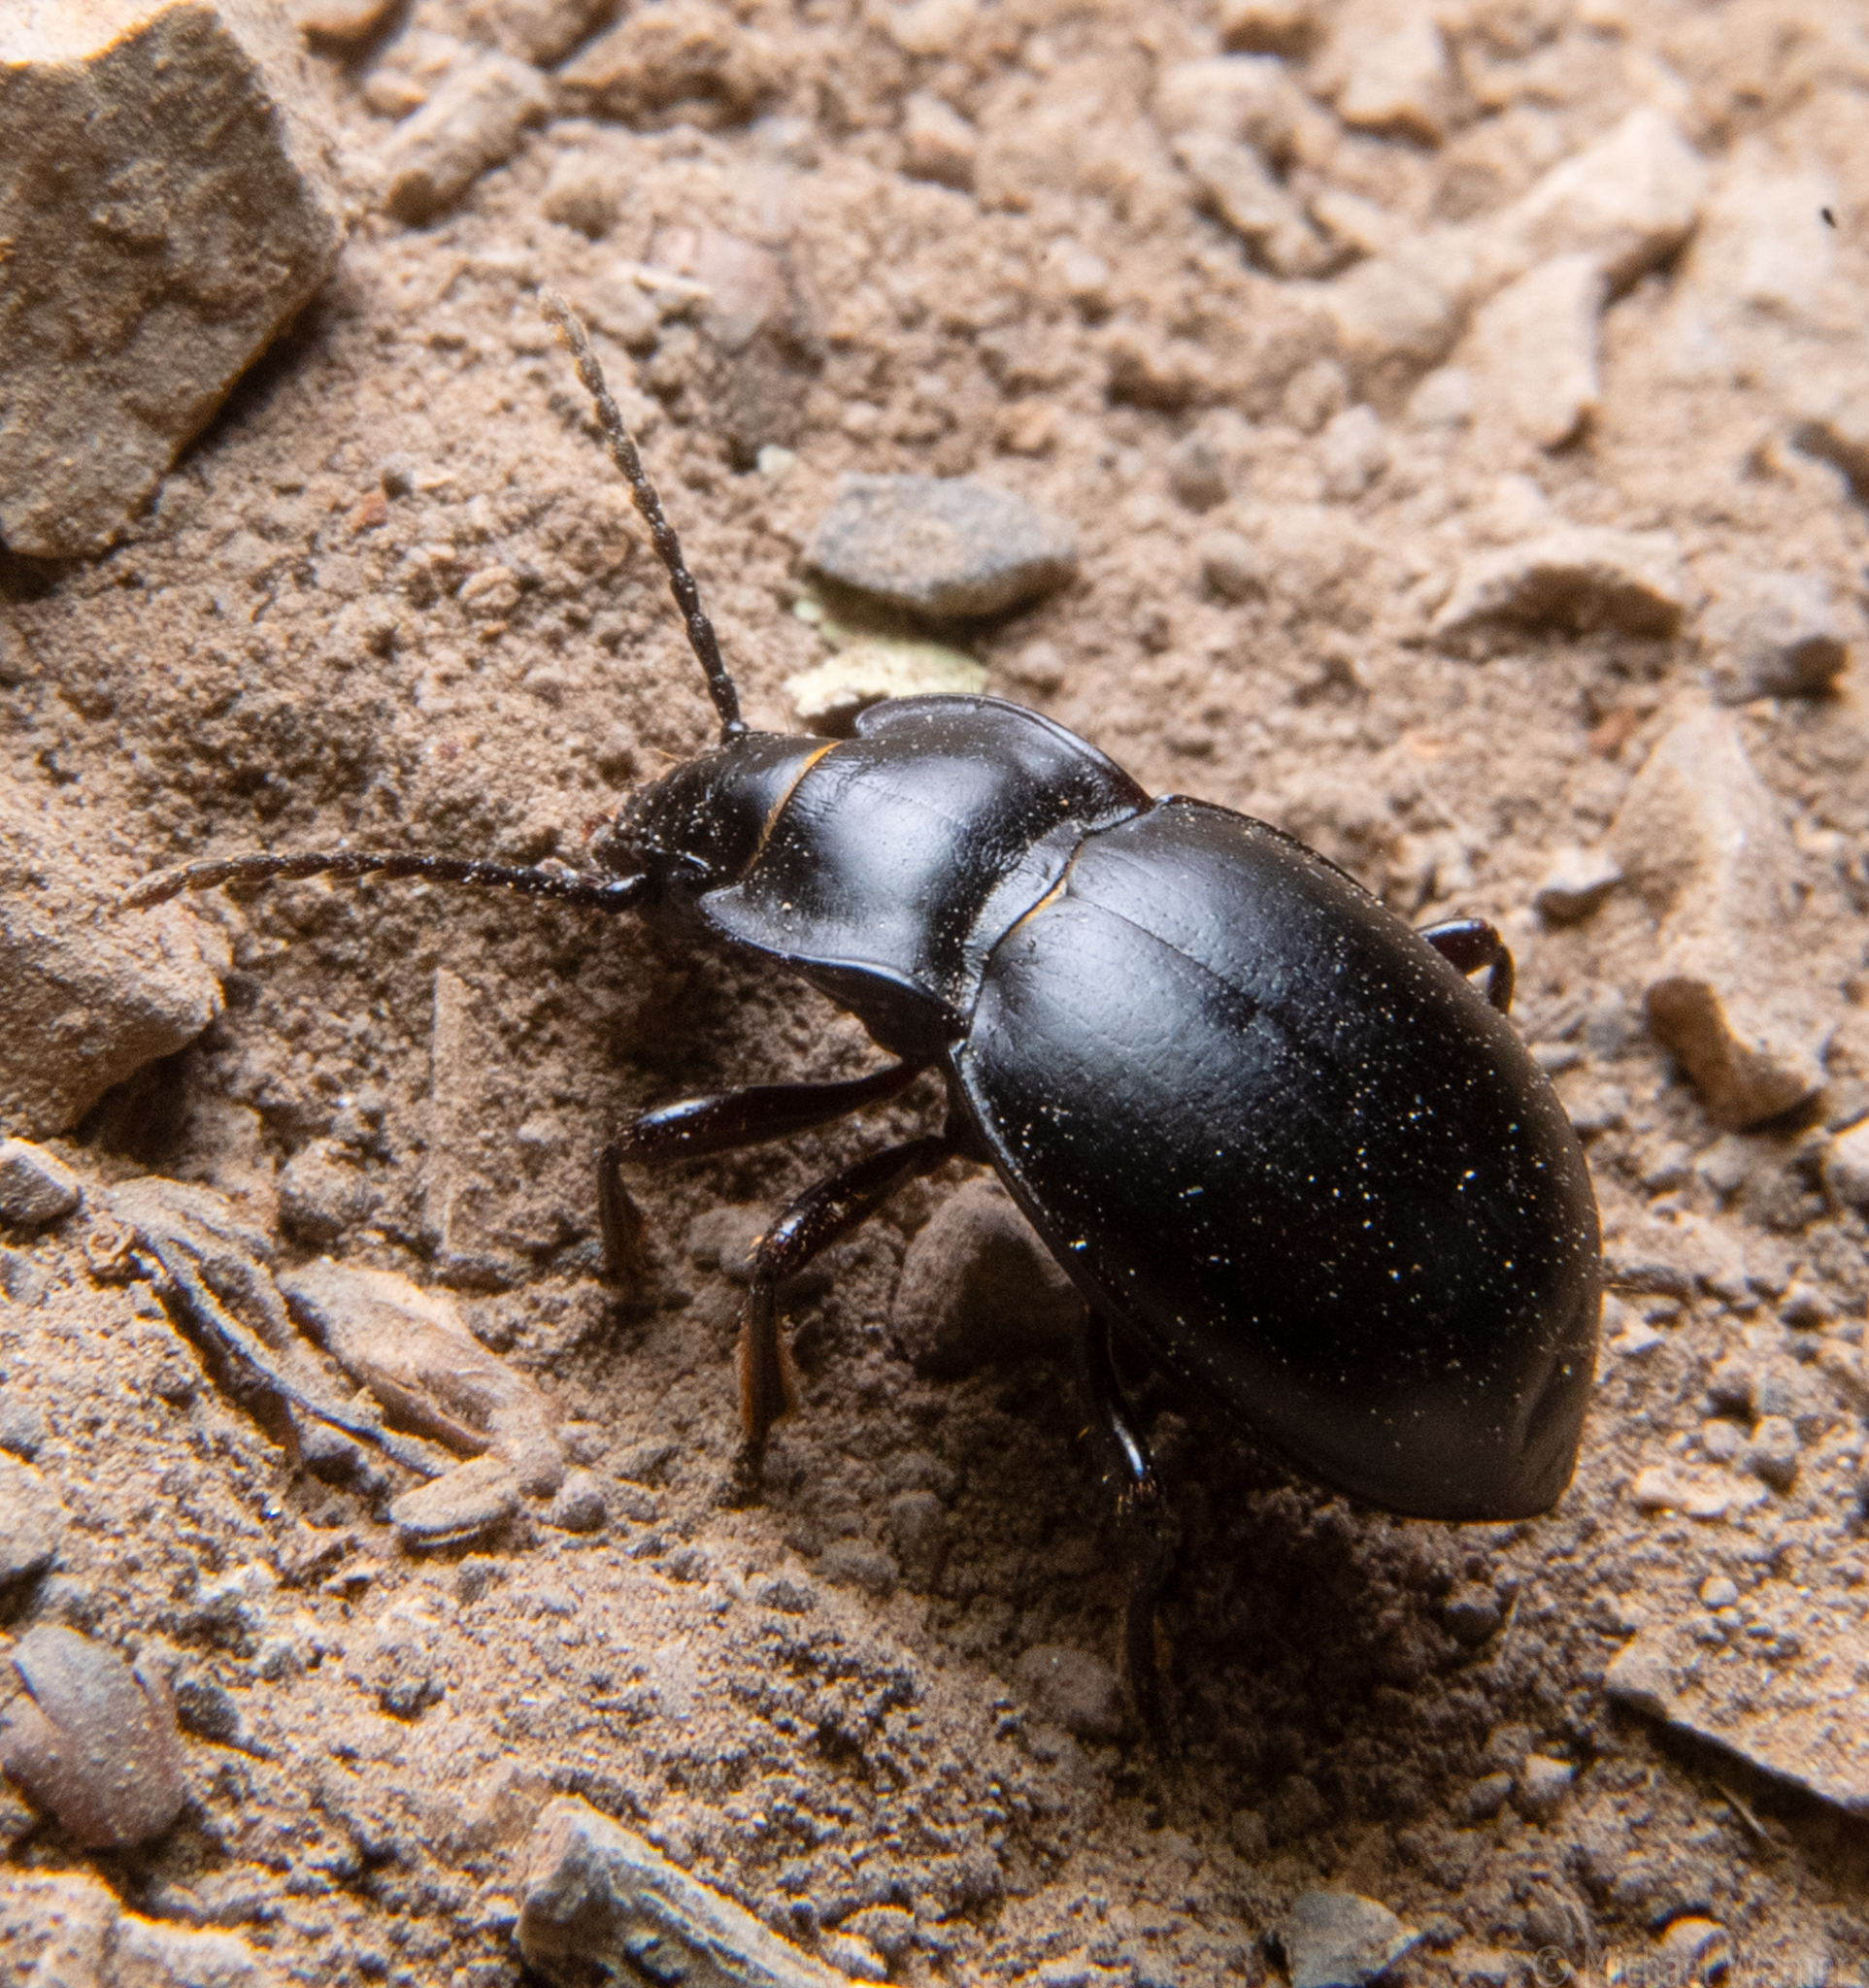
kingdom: Animalia
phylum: Arthropoda
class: Insecta
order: Coleoptera
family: Carabidae
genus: Metrius
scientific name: Metrius contractus
